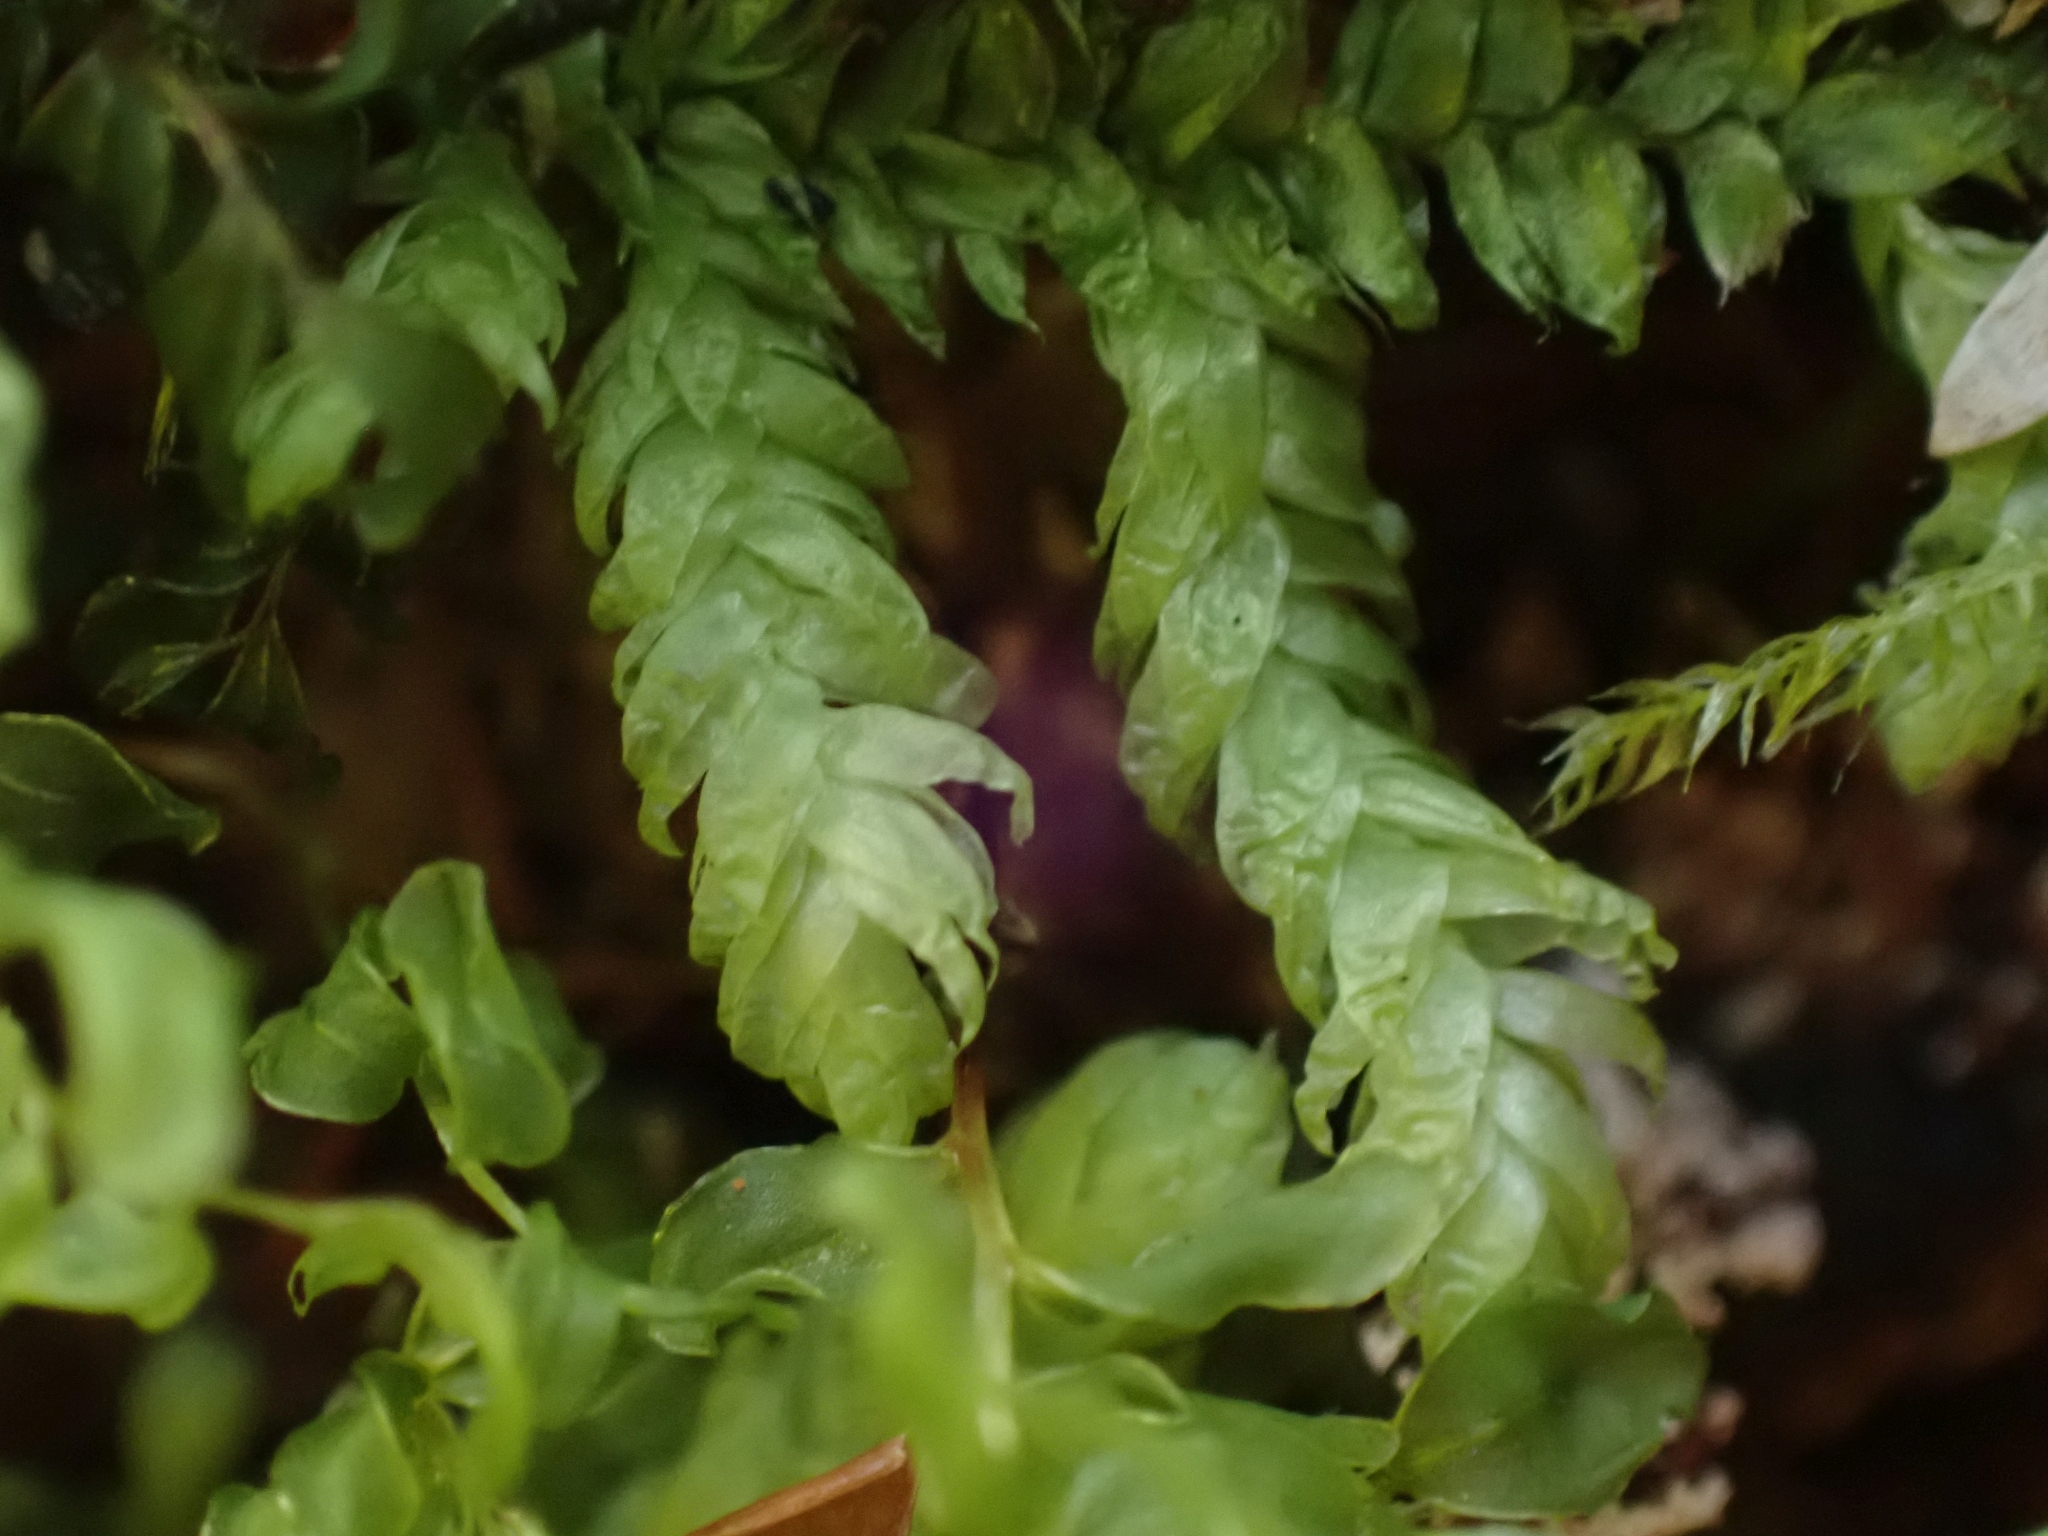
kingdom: Plantae
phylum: Bryophyta
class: Bryopsida
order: Hypnales
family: Plagiotheciaceae
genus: Plagiothecium
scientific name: Plagiothecium undulatum
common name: Waved silk-moss
